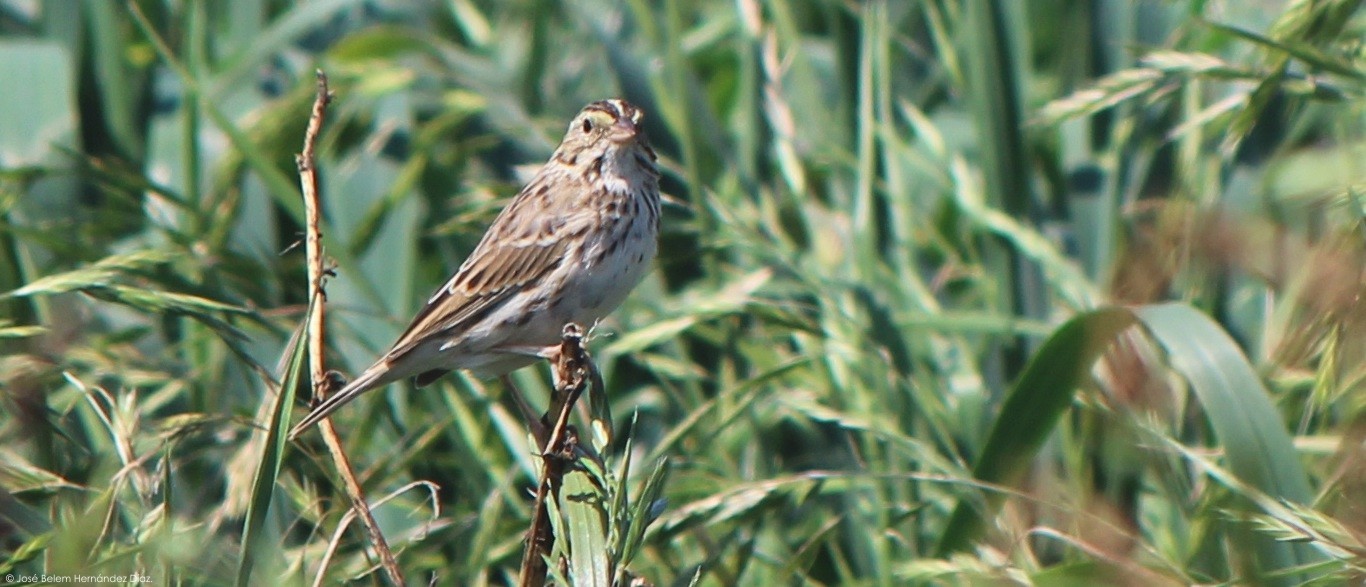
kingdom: Animalia
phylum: Chordata
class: Aves
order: Passeriformes
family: Passerellidae
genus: Passerculus
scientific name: Passerculus sandwichensis
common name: Savannah sparrow
